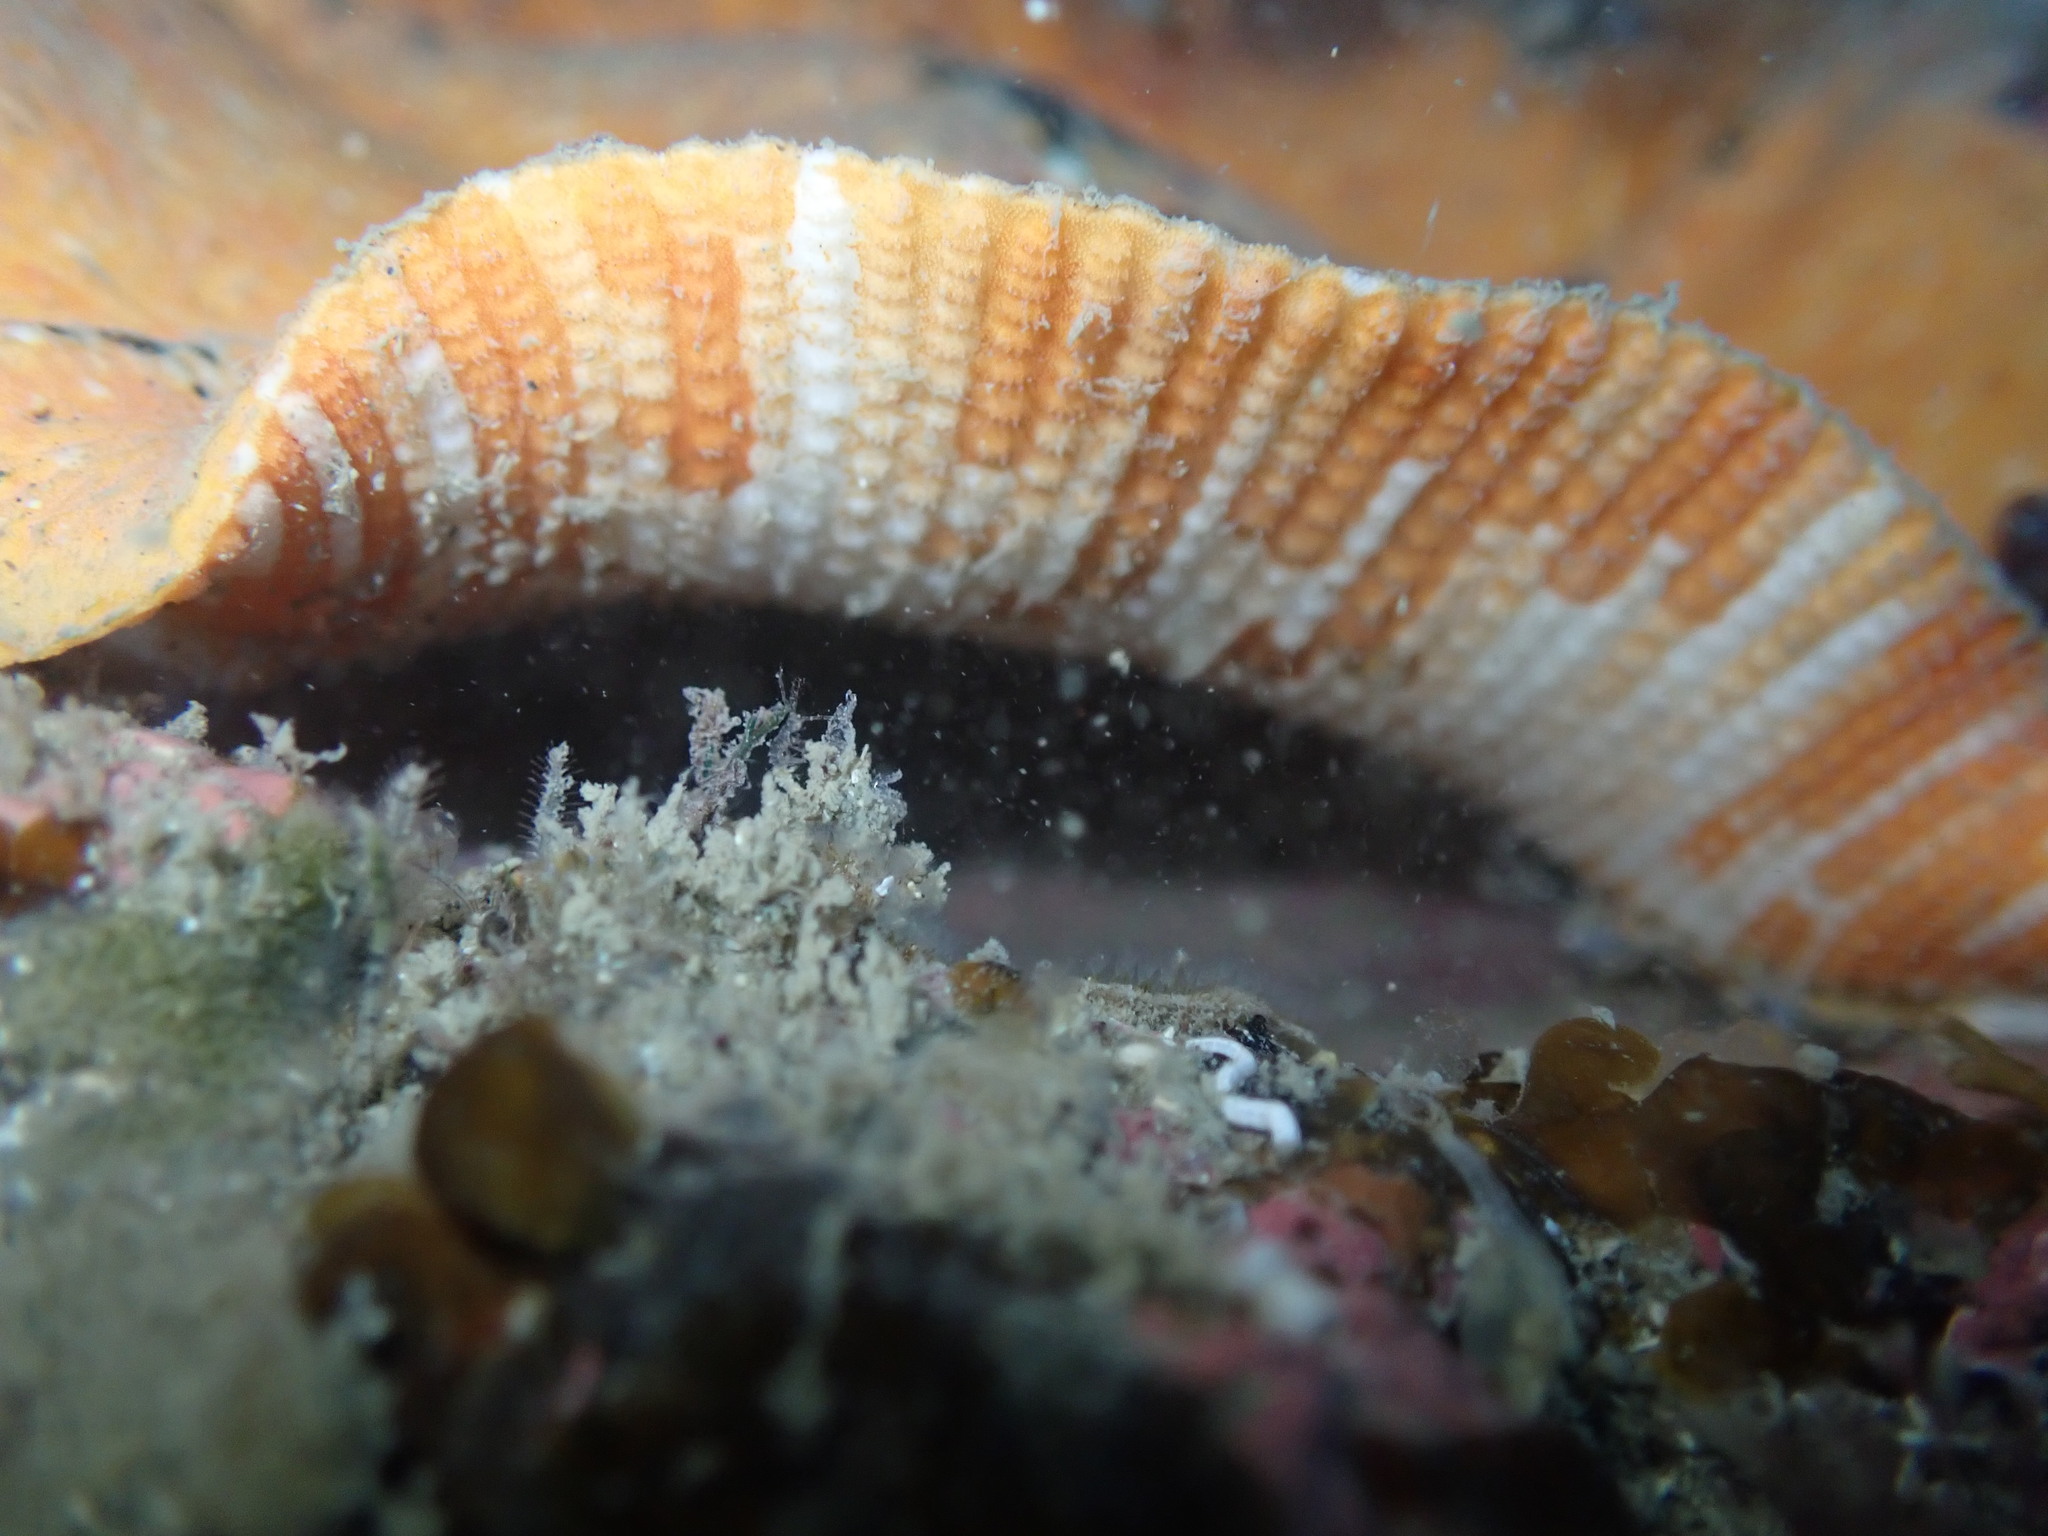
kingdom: Animalia
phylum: Echinodermata
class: Asteroidea
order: Valvatida
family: Asterinidae
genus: Stegnaster
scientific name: Stegnaster inflatus
